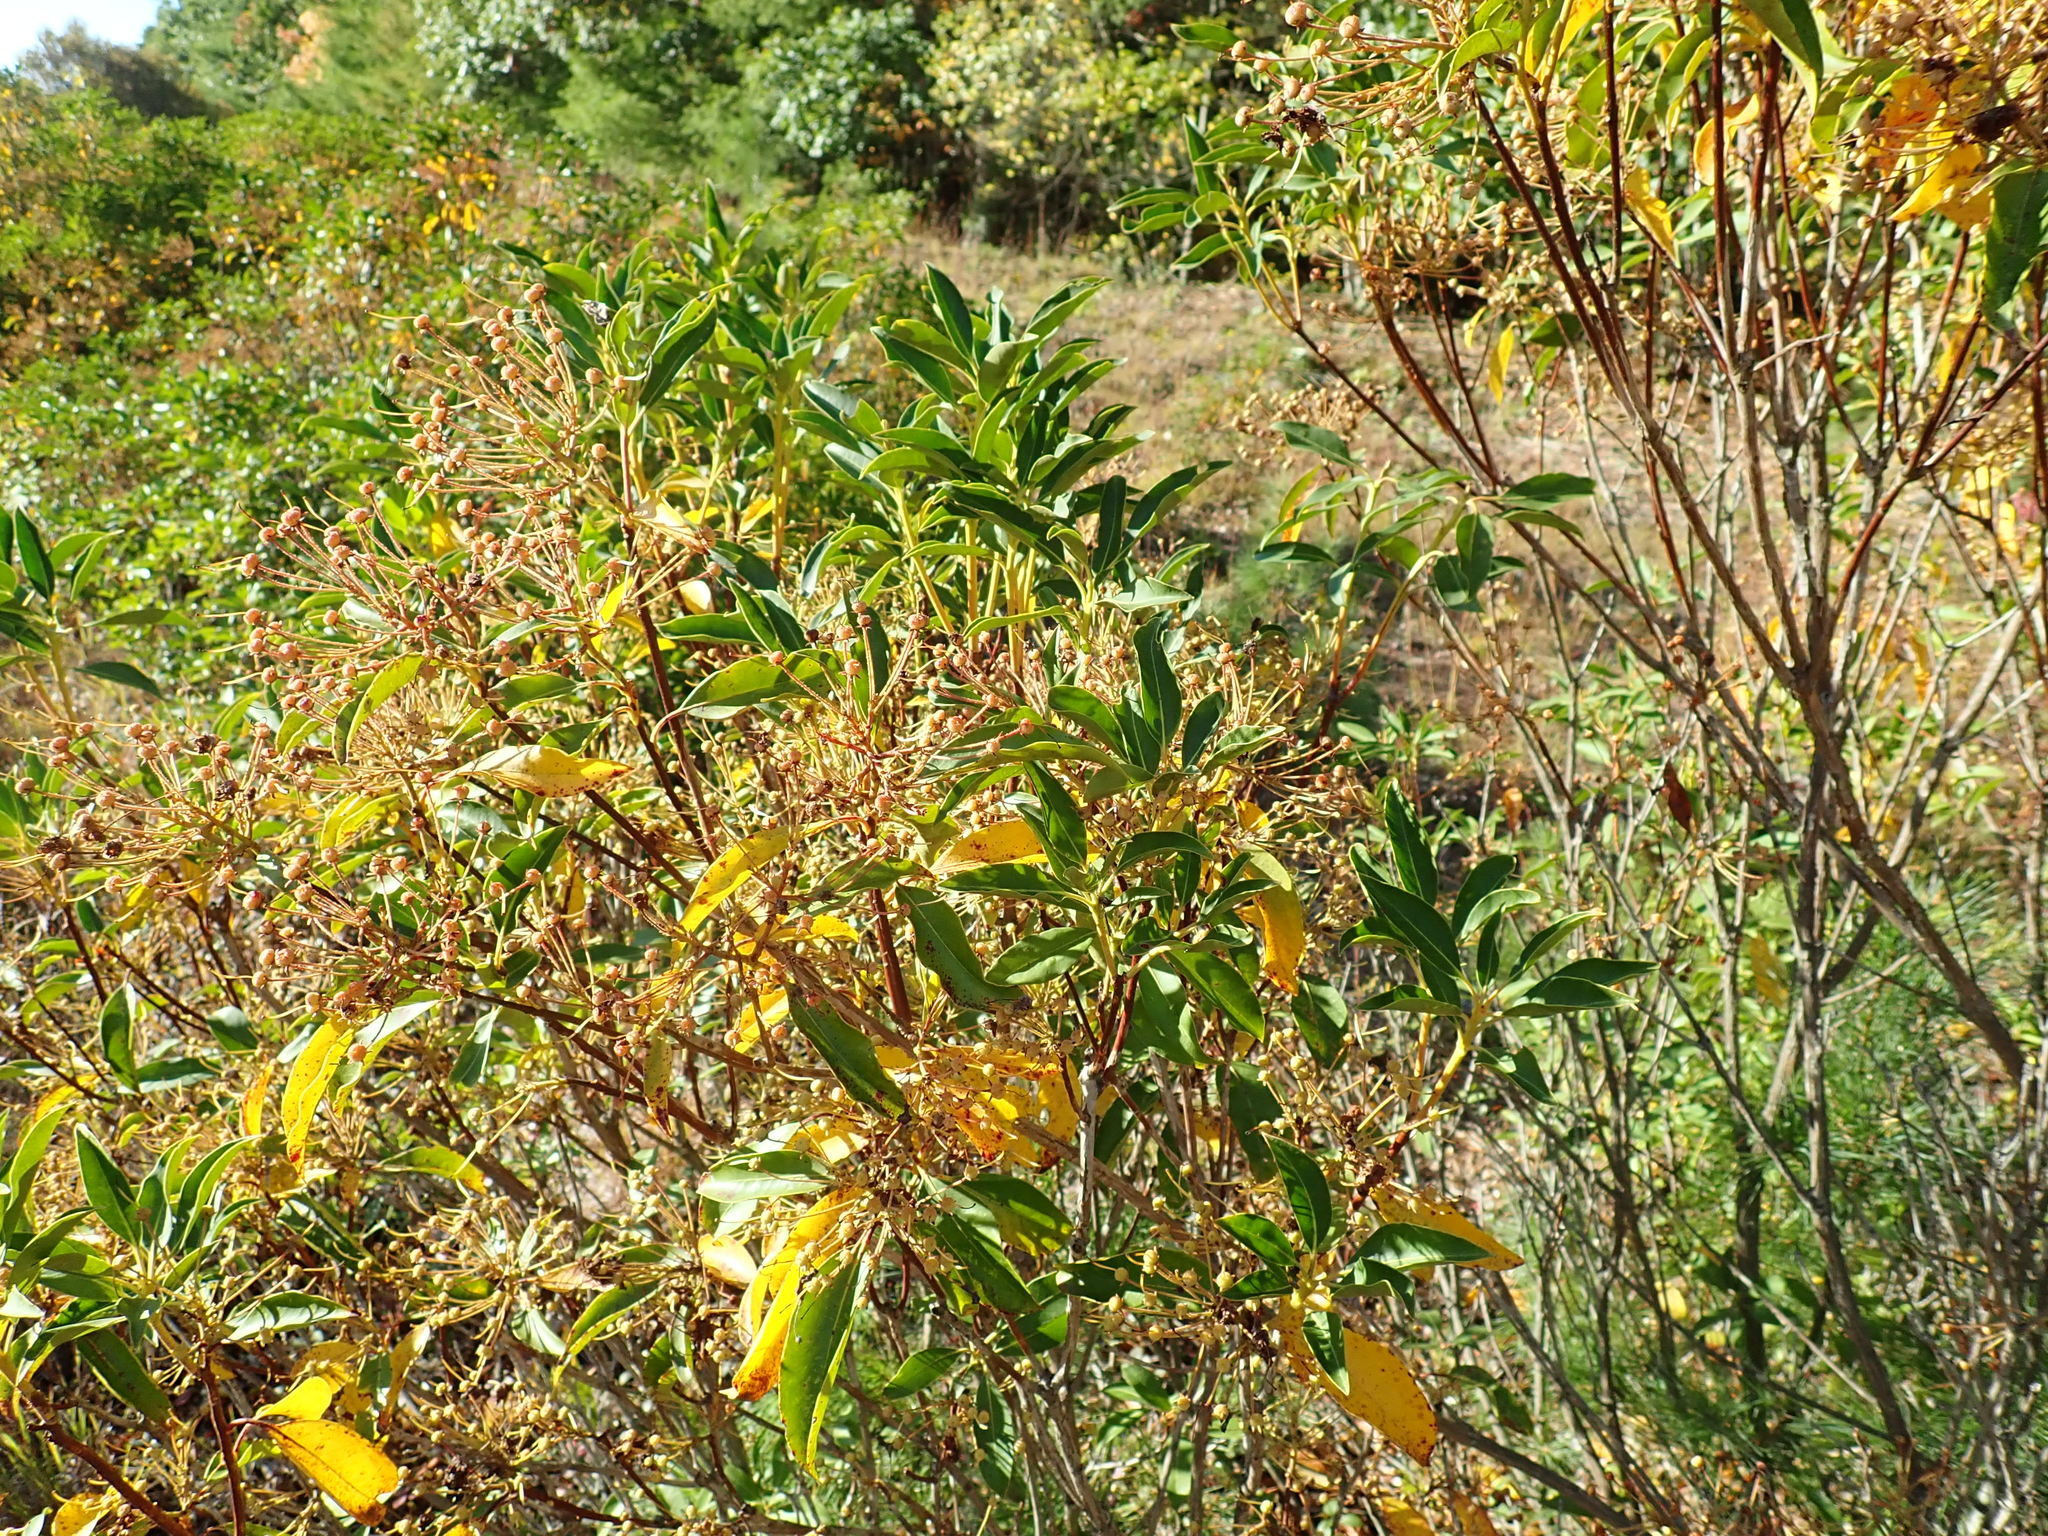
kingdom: Plantae
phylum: Tracheophyta
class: Magnoliopsida
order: Ericales
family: Ericaceae
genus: Kalmia
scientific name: Kalmia latifolia
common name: Mountain-laurel
